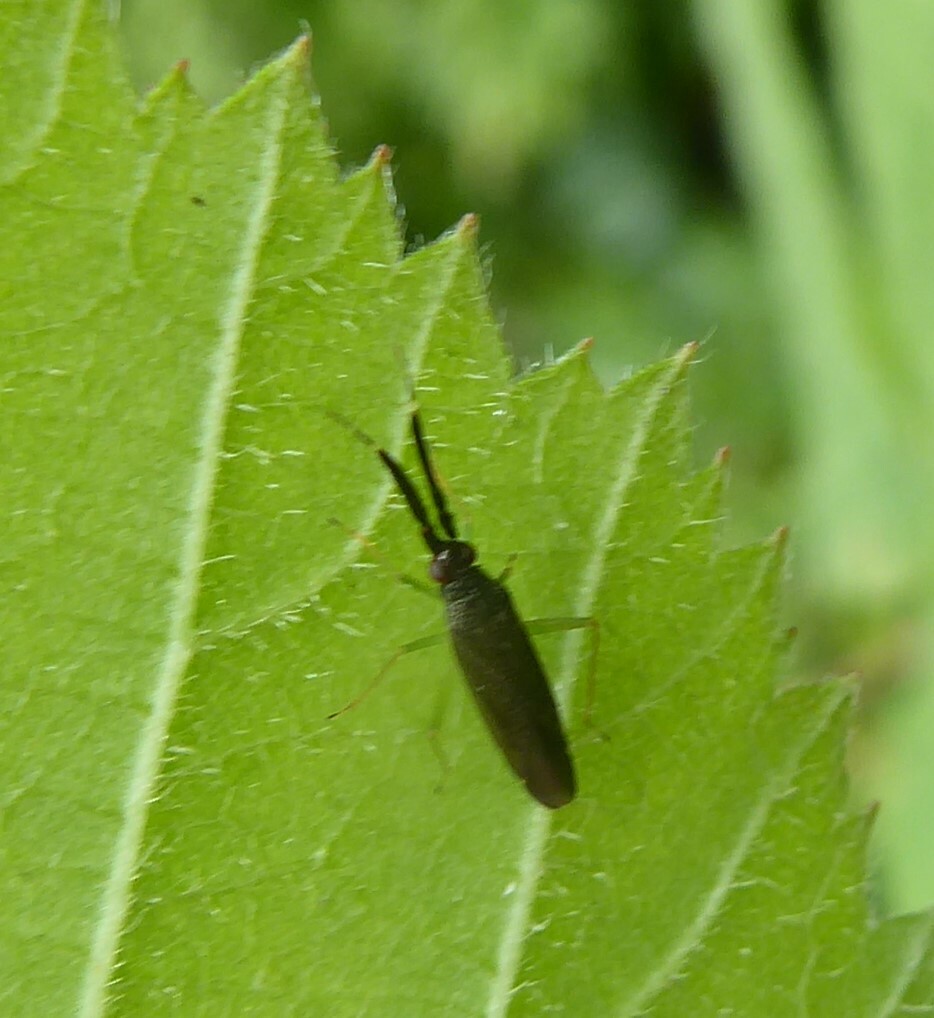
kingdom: Animalia
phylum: Arthropoda
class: Insecta
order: Hemiptera
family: Miridae
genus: Heterotoma
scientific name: Heterotoma planicornis
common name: Plant bug
